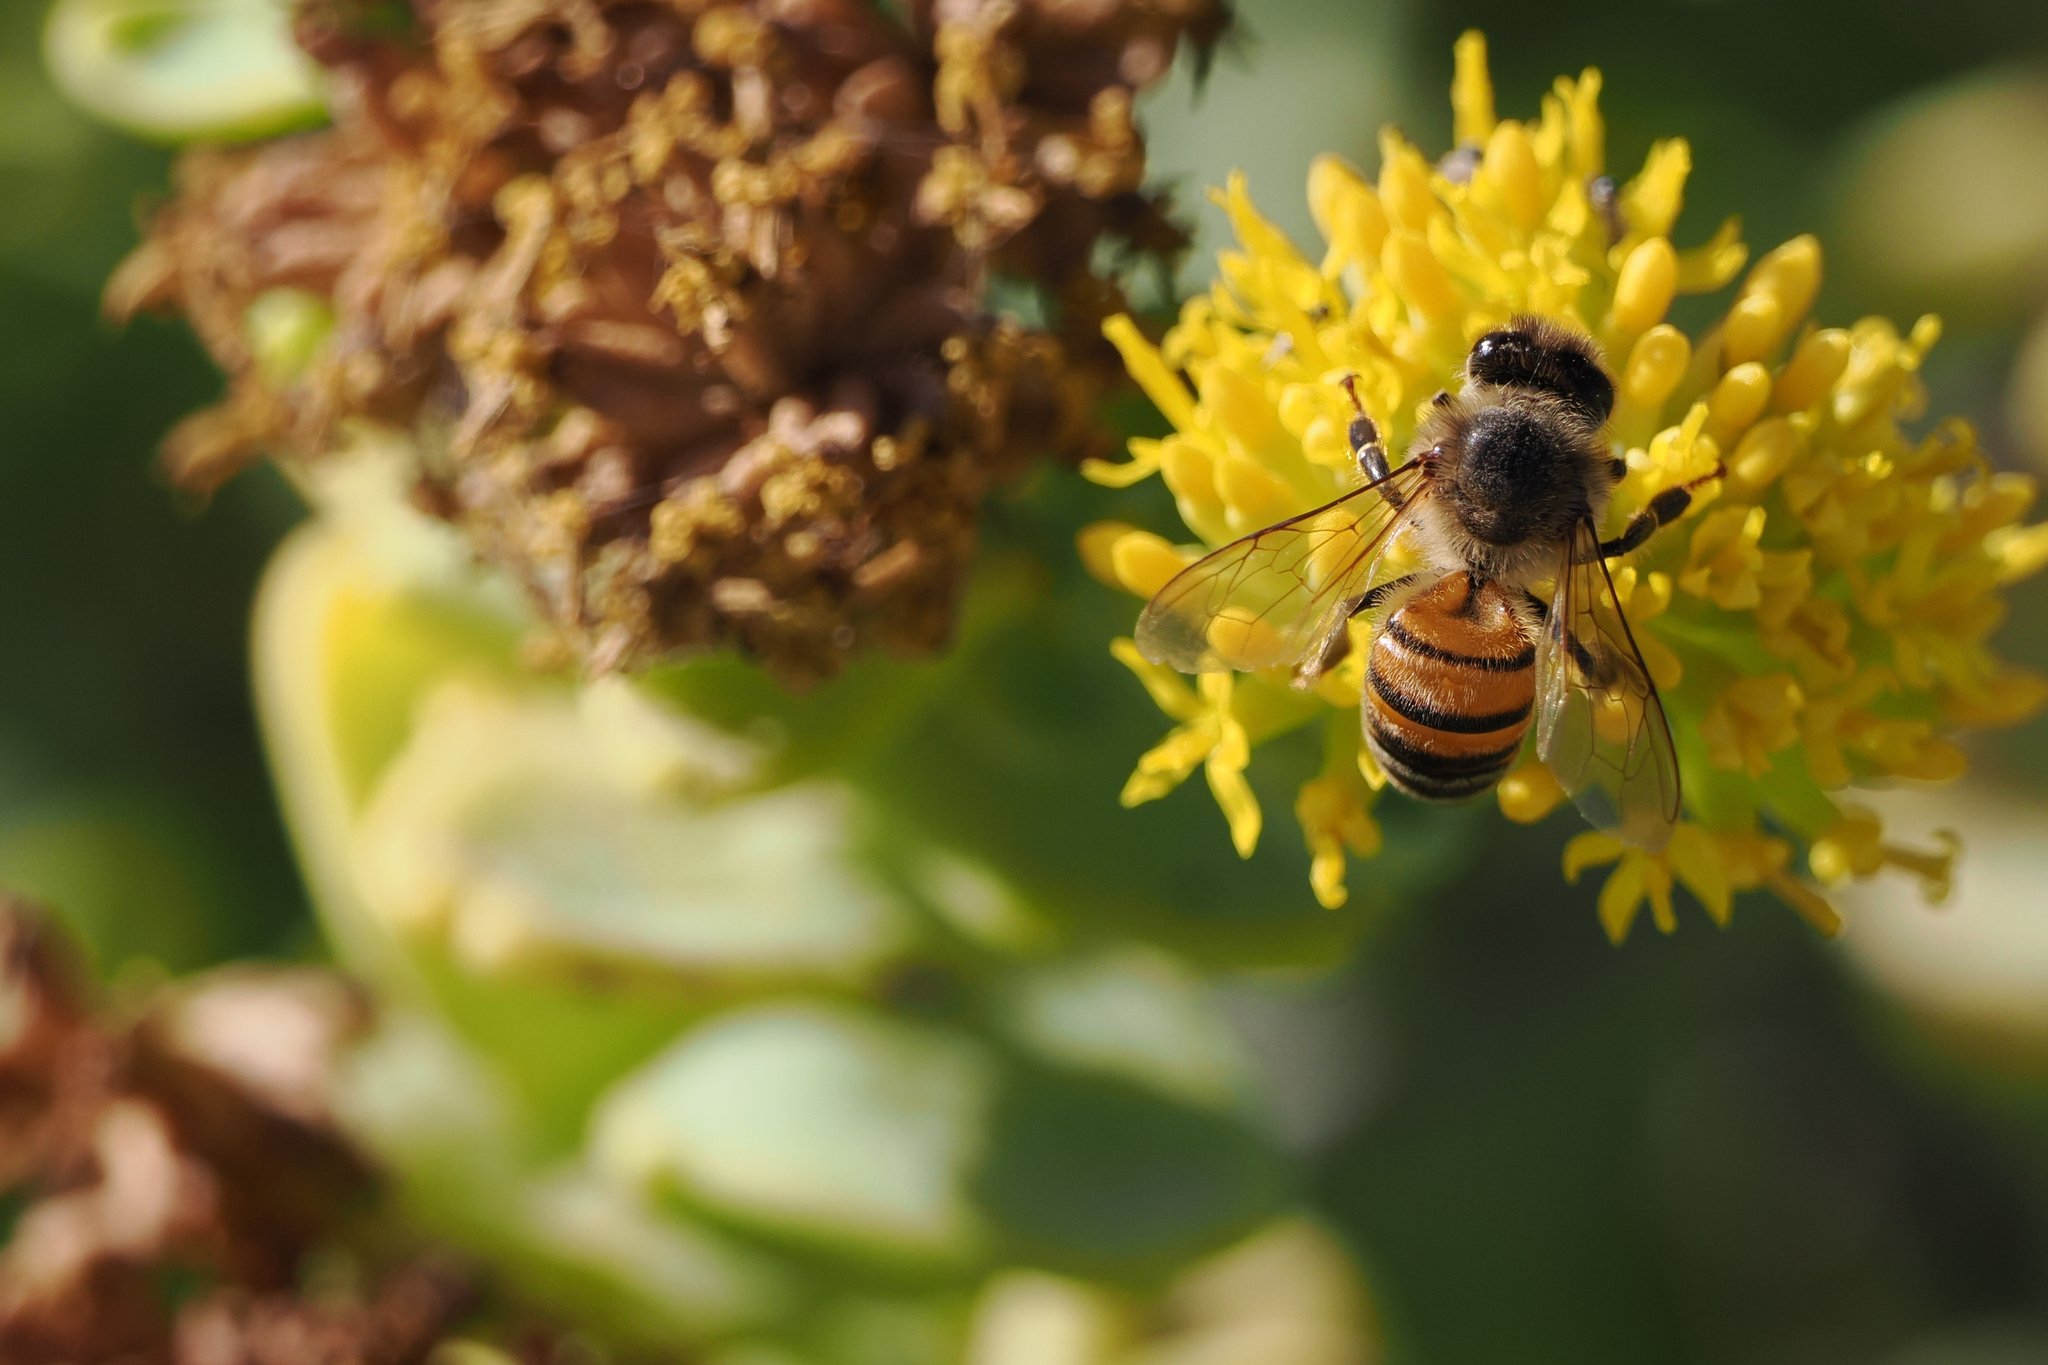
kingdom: Animalia
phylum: Arthropoda
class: Insecta
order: Hymenoptera
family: Apidae
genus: Apis
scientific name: Apis mellifera
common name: Honey bee
